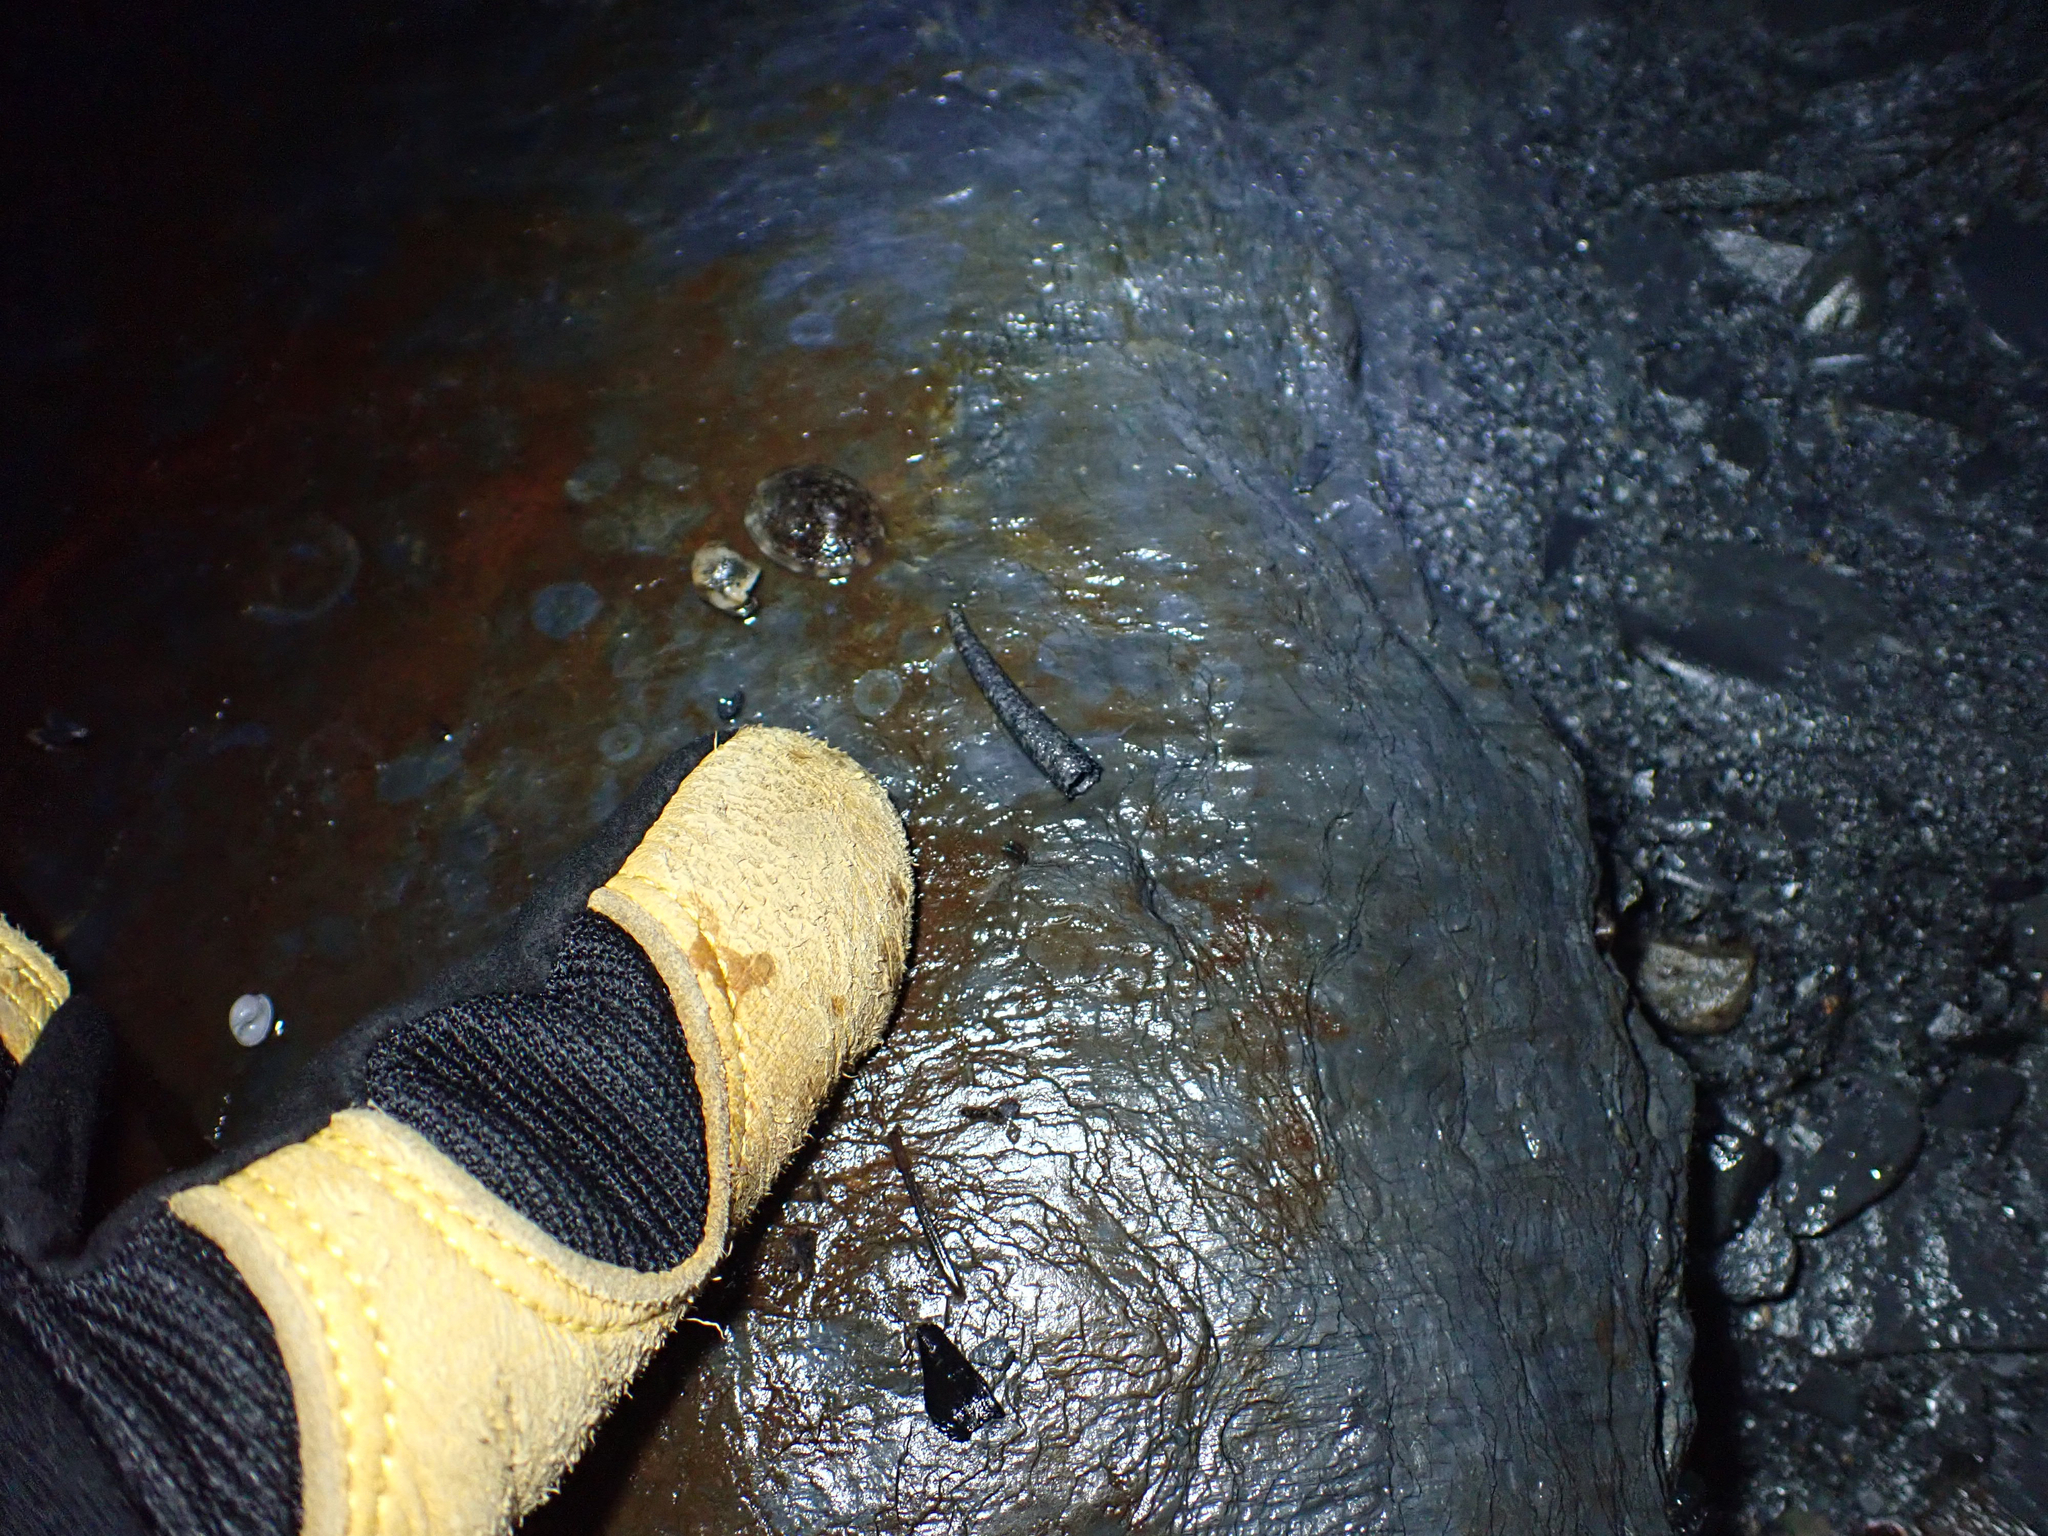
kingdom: Animalia
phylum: Annelida
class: Polychaeta
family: Pectinariidae
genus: Cistenides
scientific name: Cistenides brevicoma
